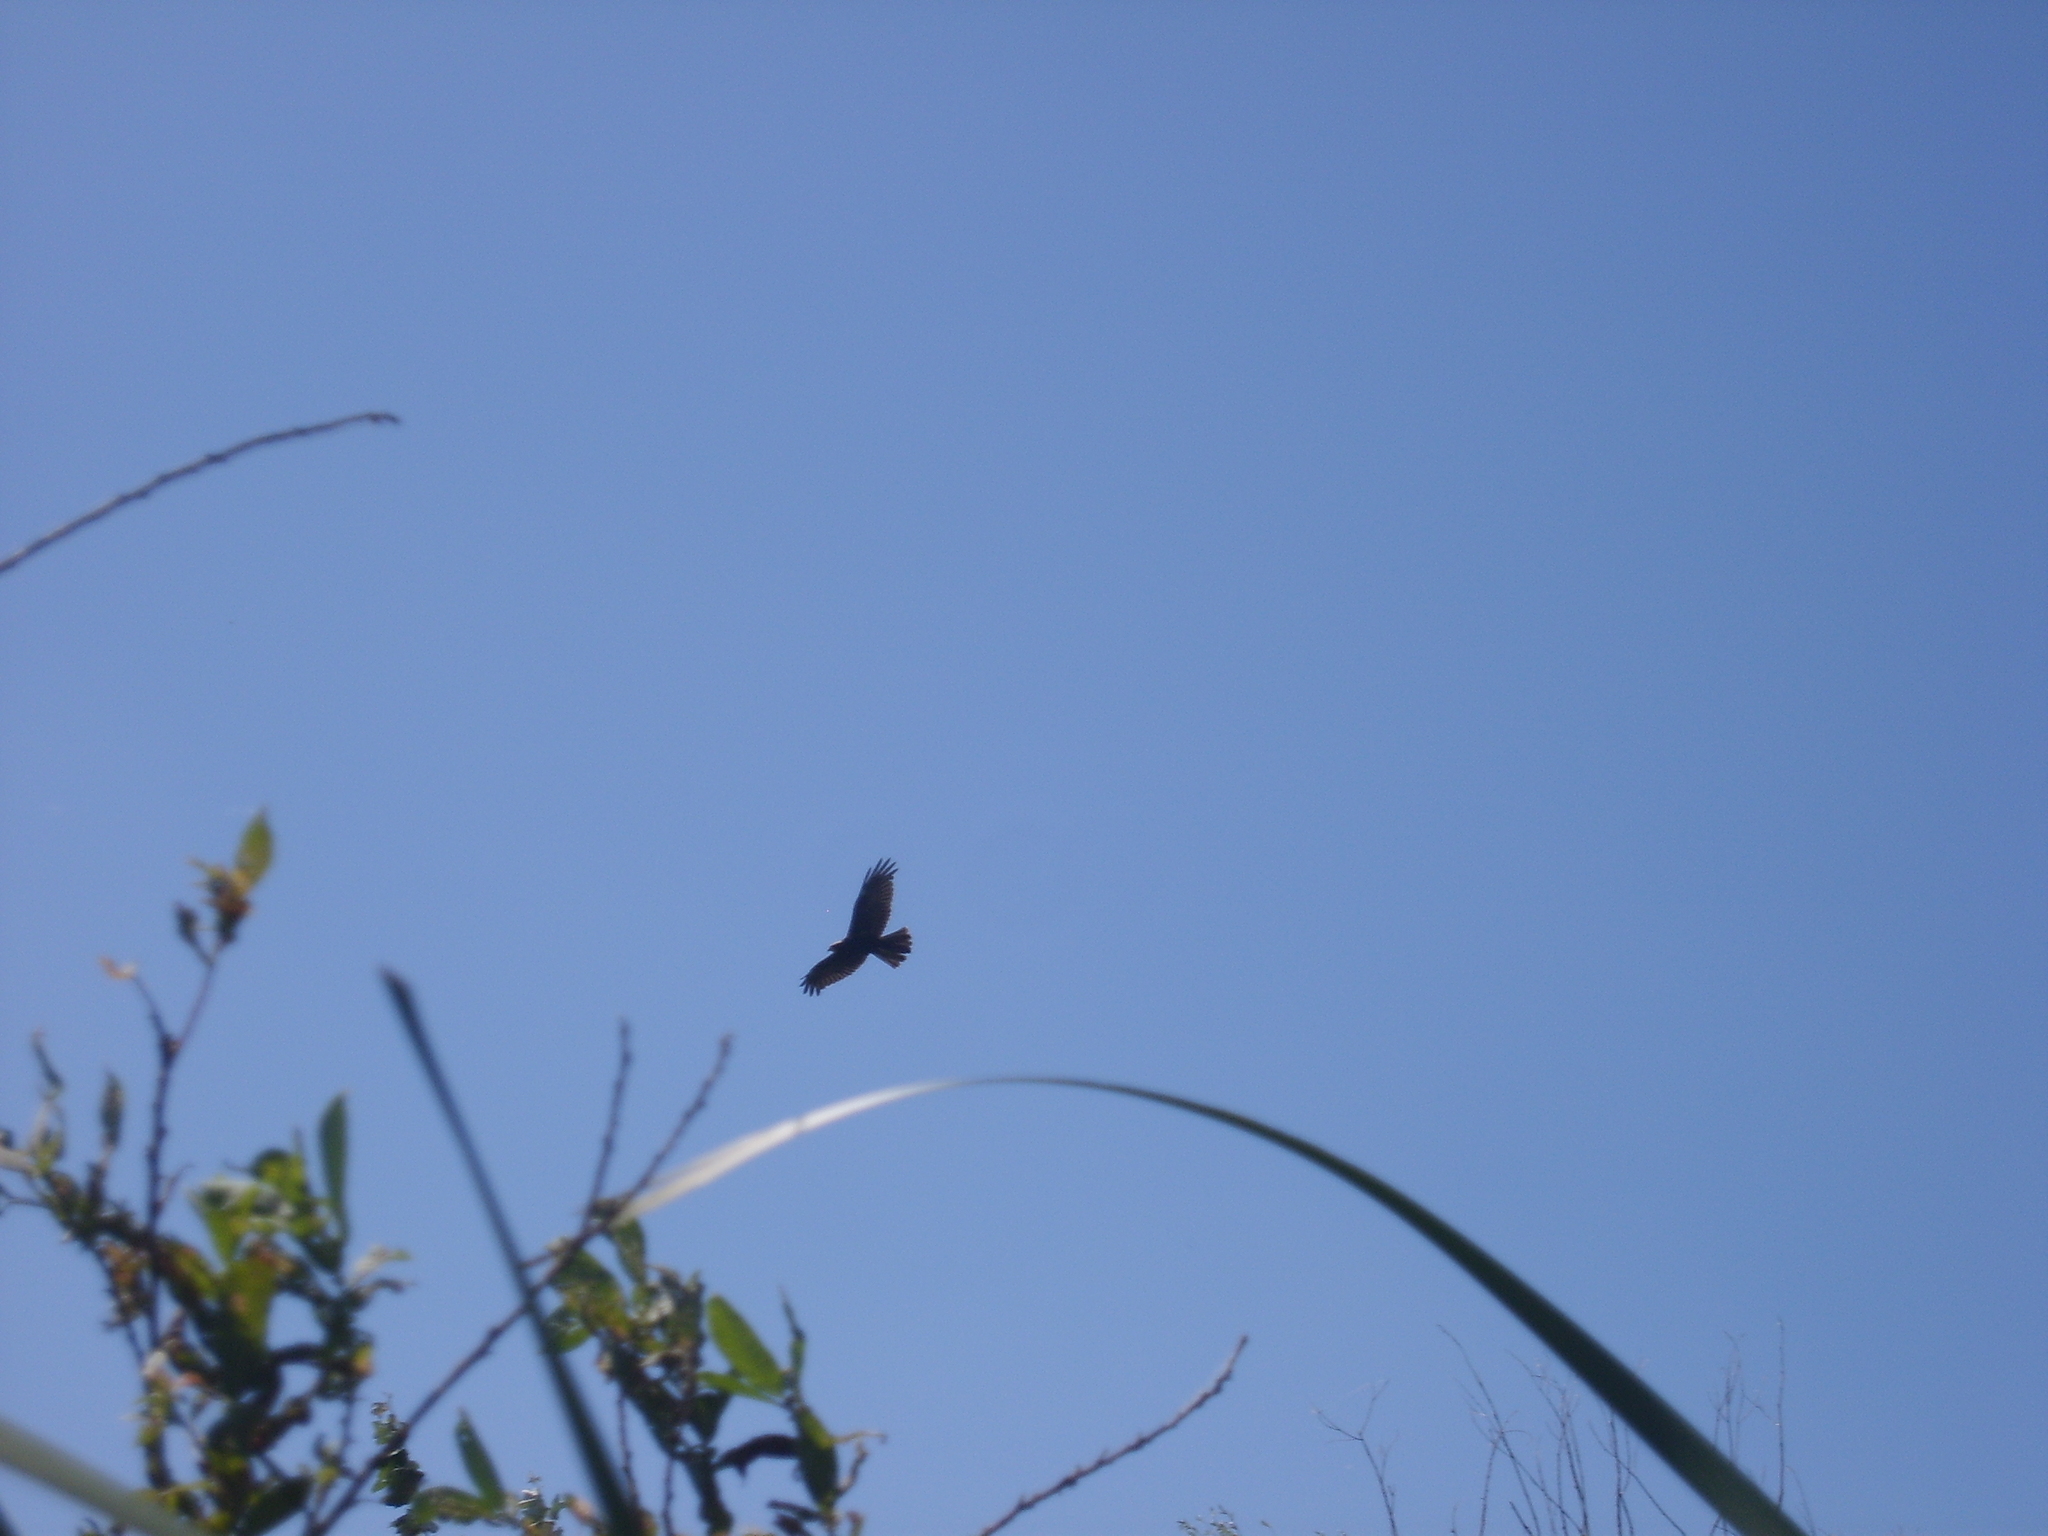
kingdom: Animalia
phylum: Chordata
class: Aves
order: Accipitriformes
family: Accipitridae
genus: Circus
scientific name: Circus aeruginosus
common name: Western marsh harrier
